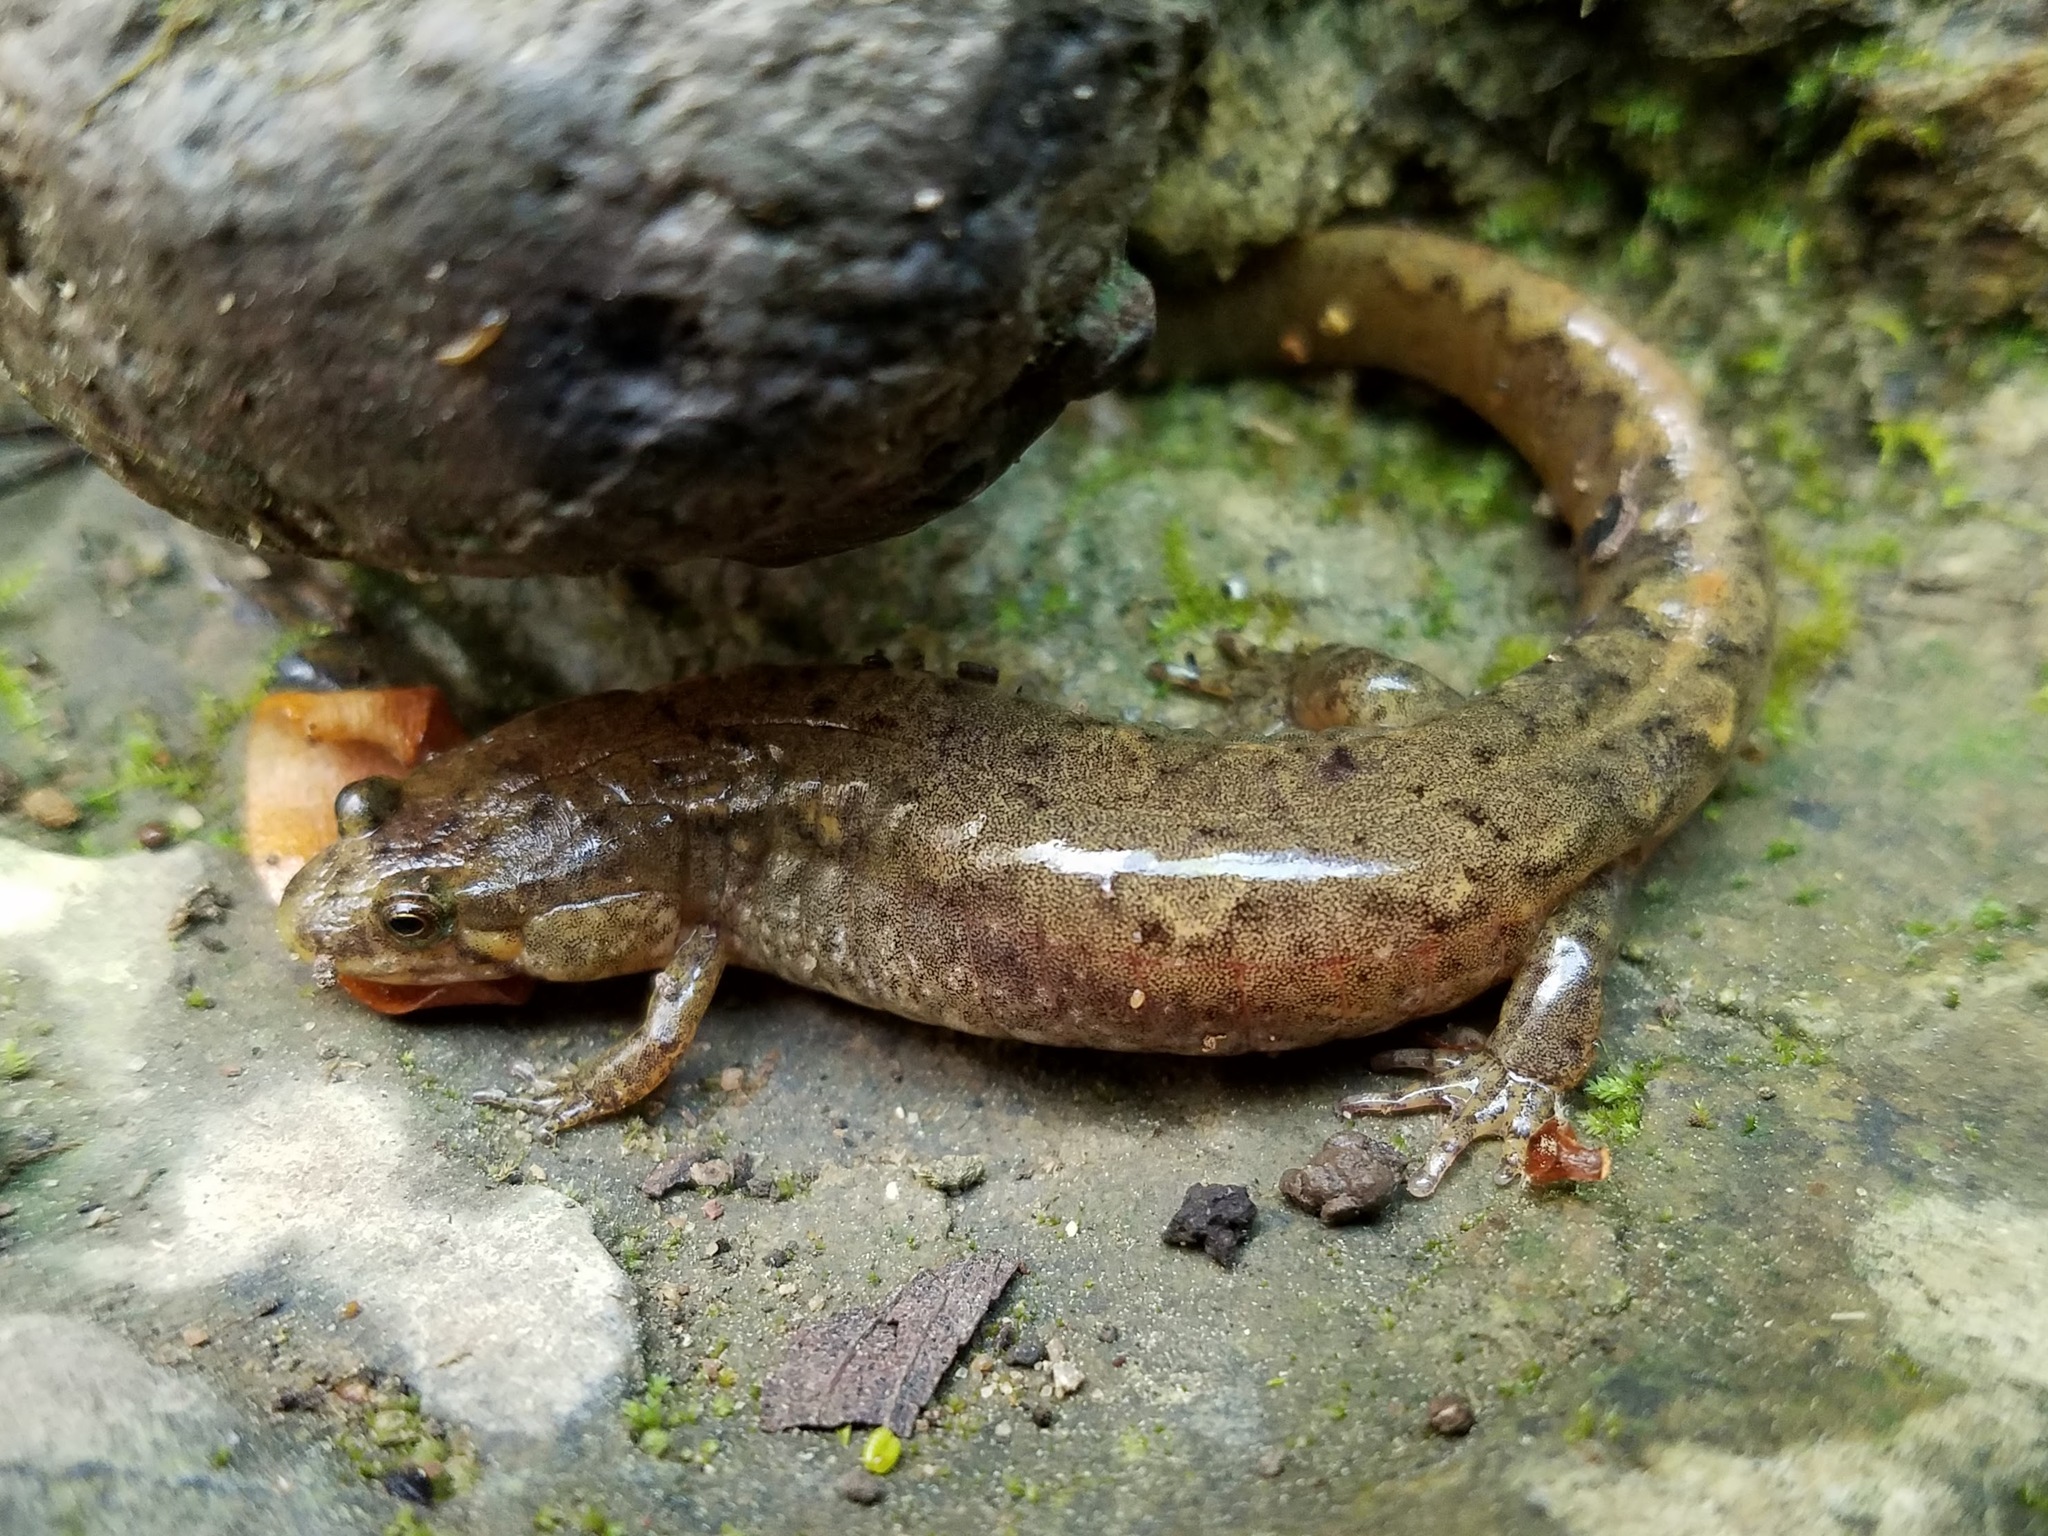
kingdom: Animalia
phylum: Chordata
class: Amphibia
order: Caudata
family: Plethodontidae
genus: Desmognathus
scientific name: Desmognathus conanti
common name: Spotted dusky salamander
